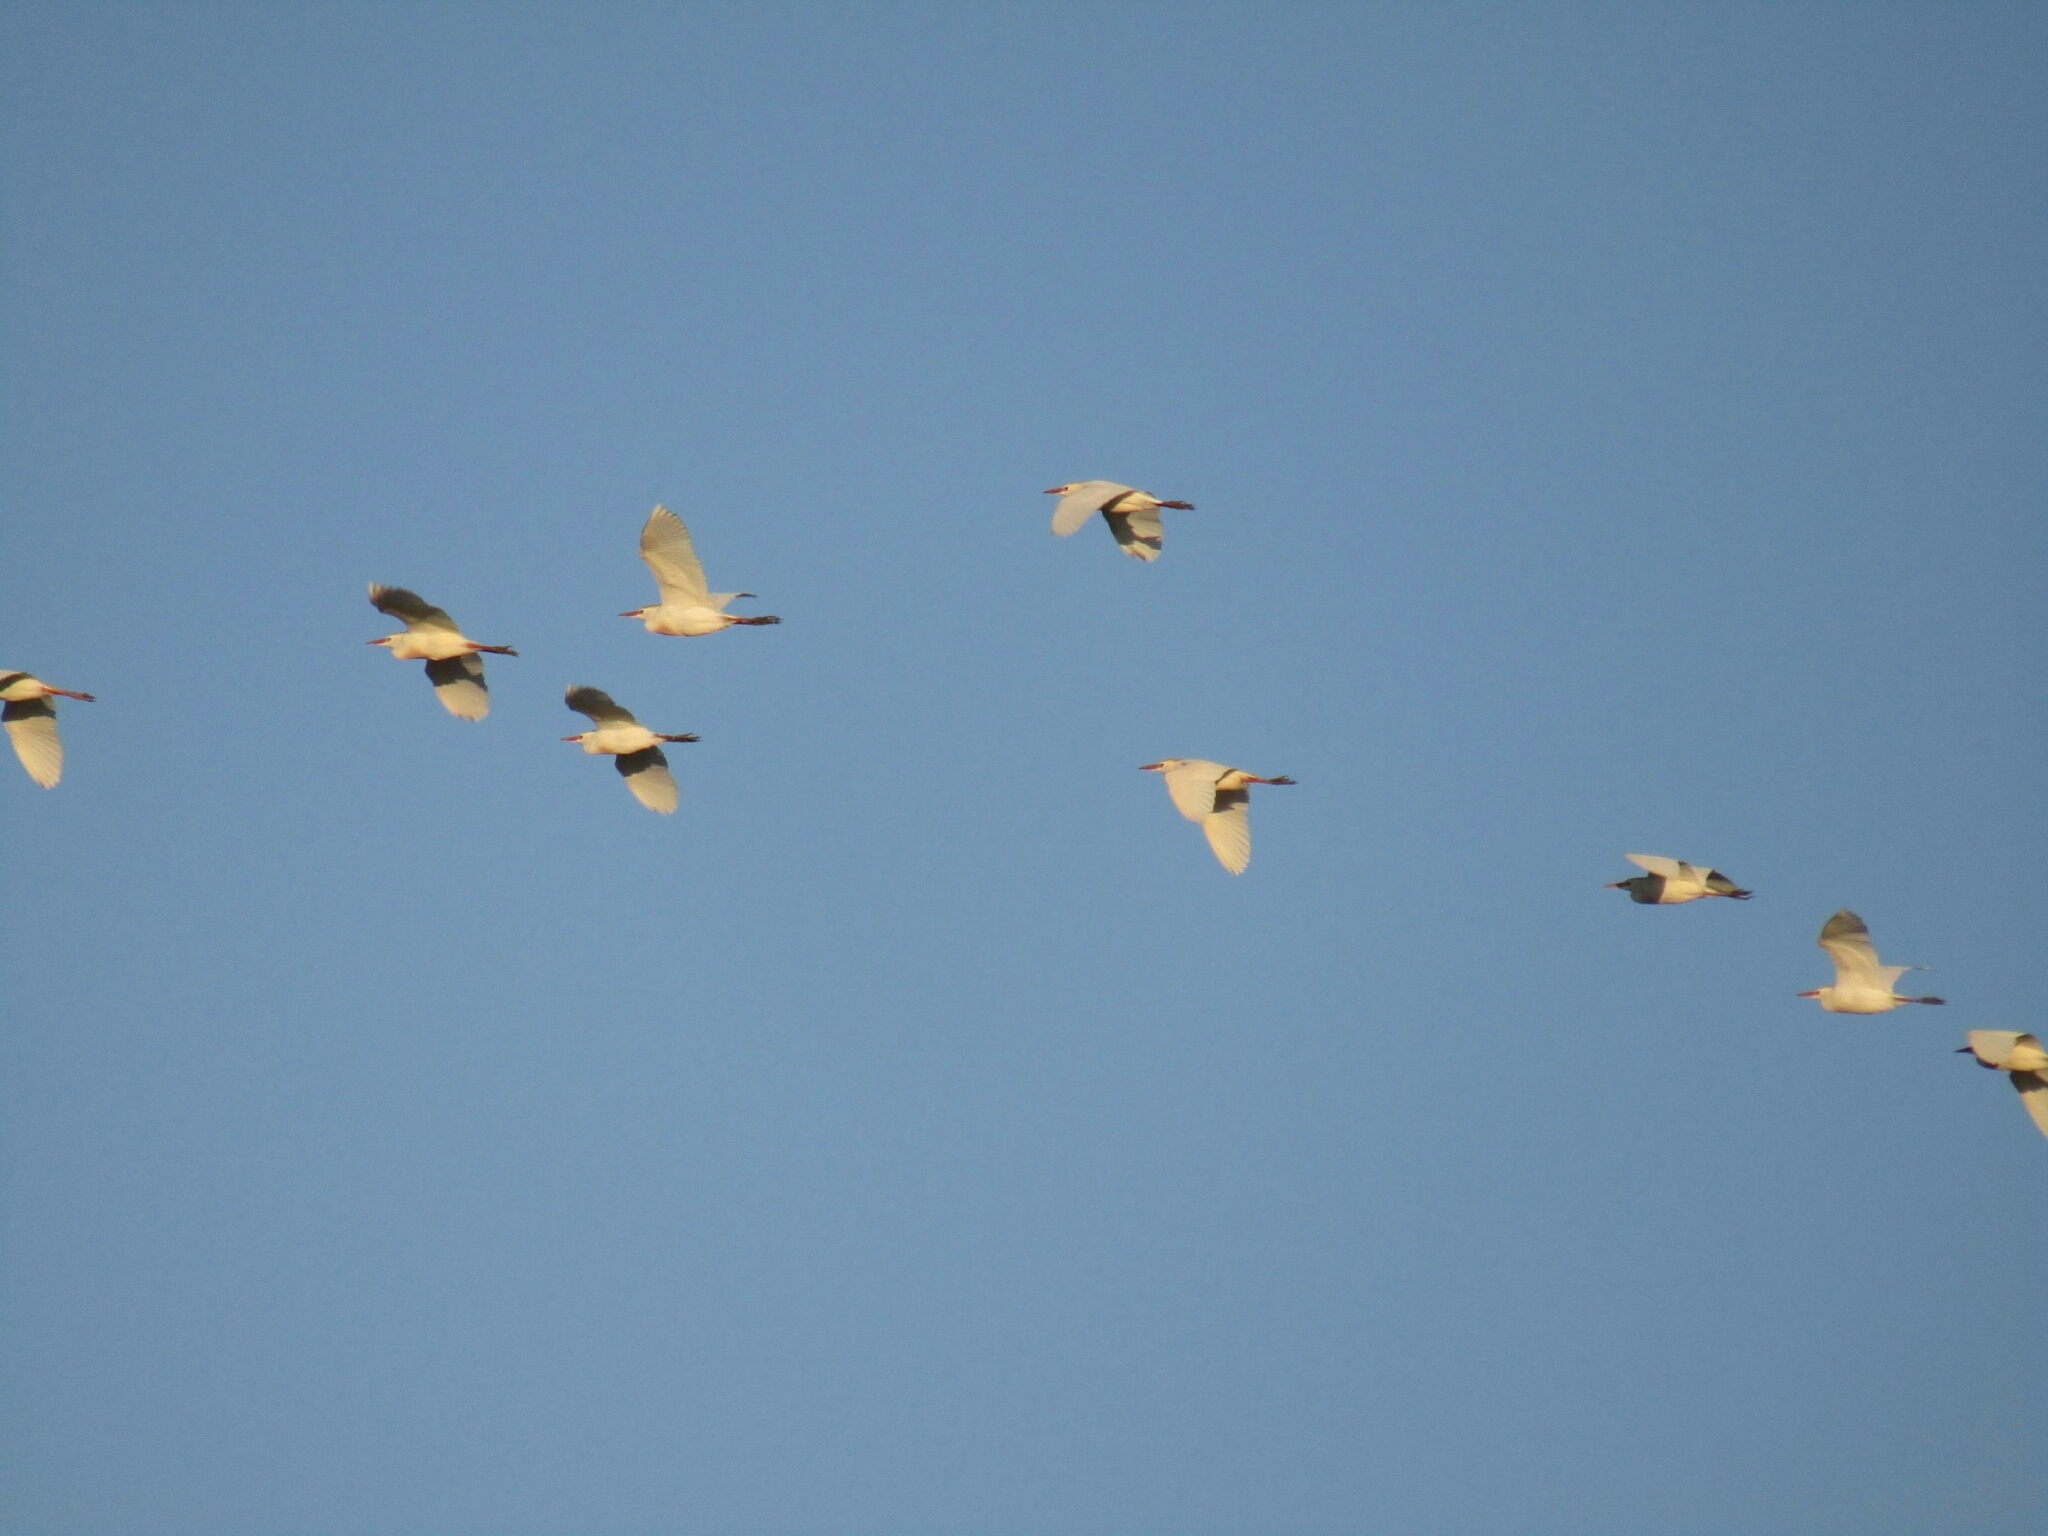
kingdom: Animalia
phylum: Chordata
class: Aves
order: Pelecaniformes
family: Ardeidae
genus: Bubulcus
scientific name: Bubulcus ibis
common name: Cattle egret
